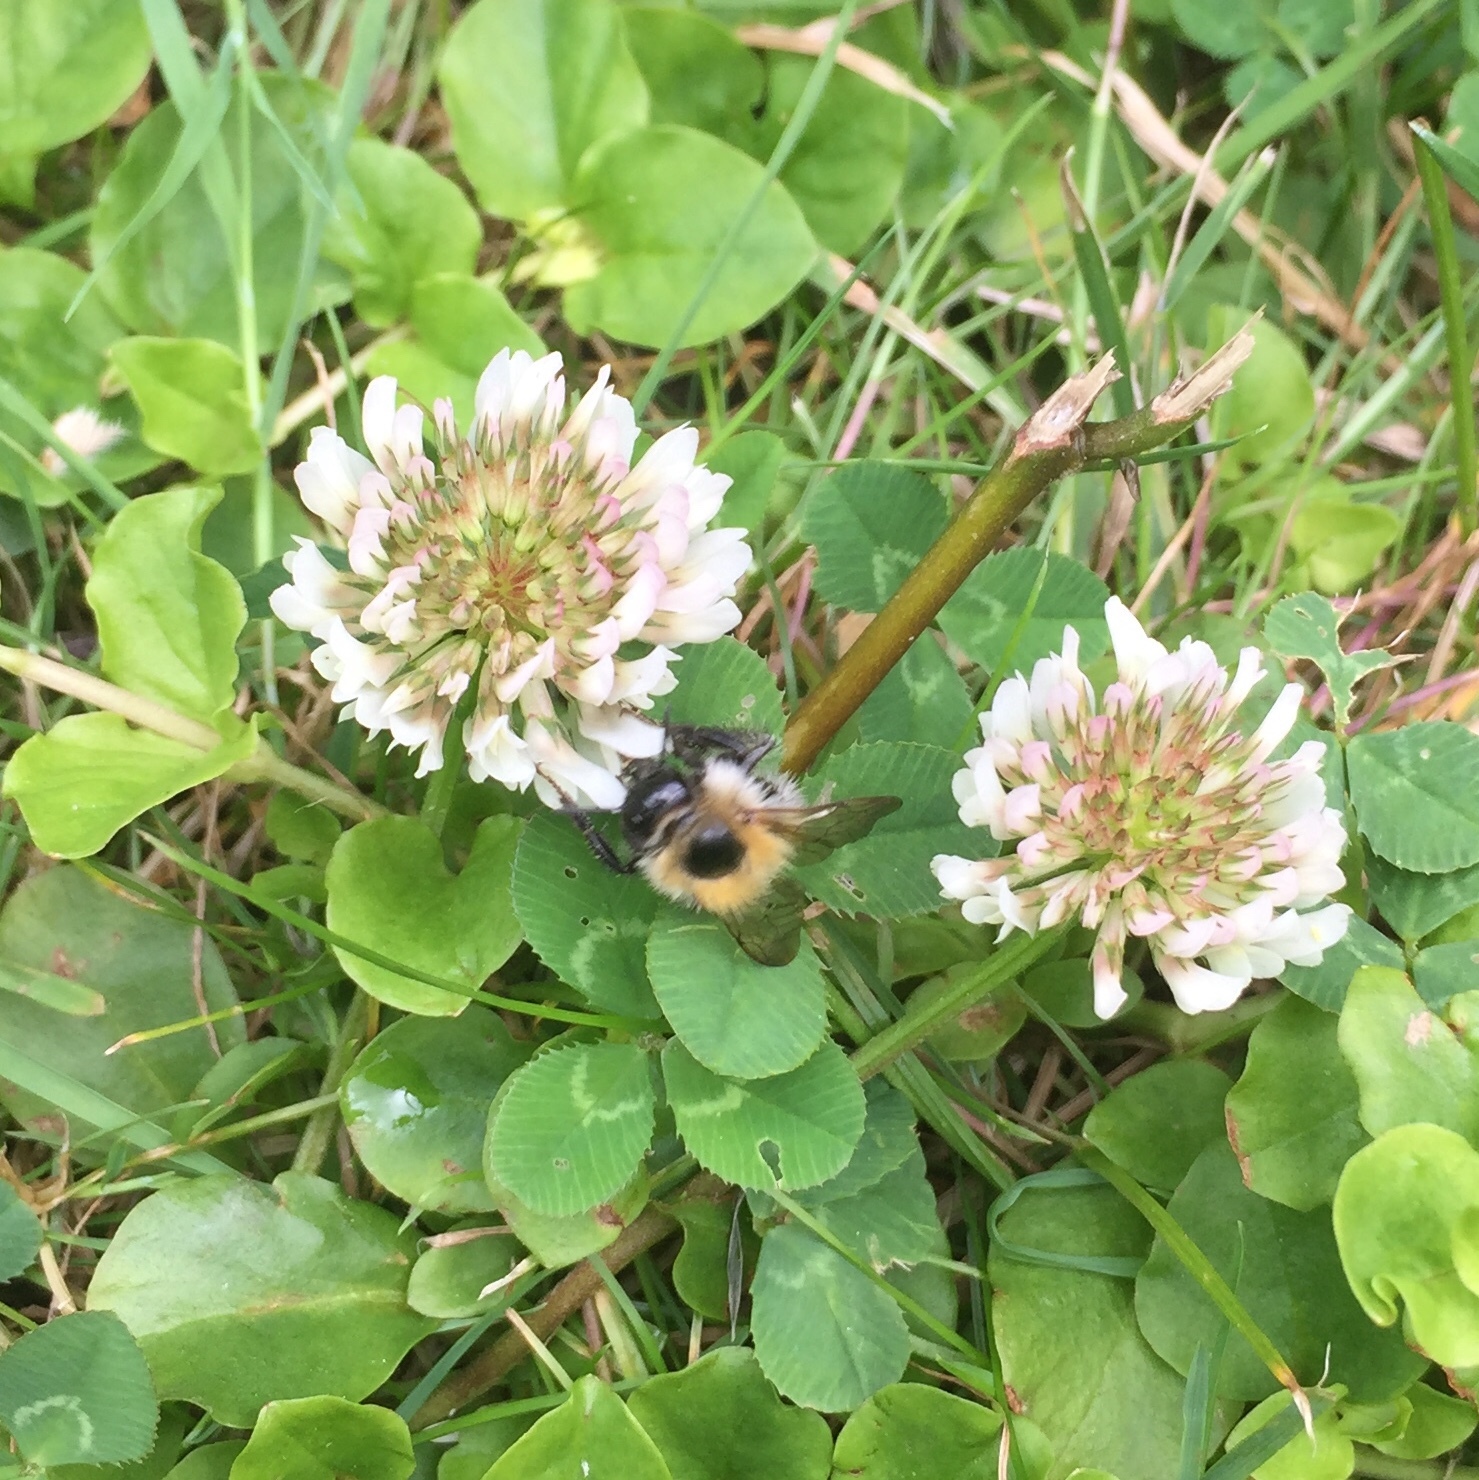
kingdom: Animalia
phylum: Arthropoda
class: Insecta
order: Hymenoptera
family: Apidae
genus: Bombus
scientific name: Bombus pascuorum
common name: Common carder bee
